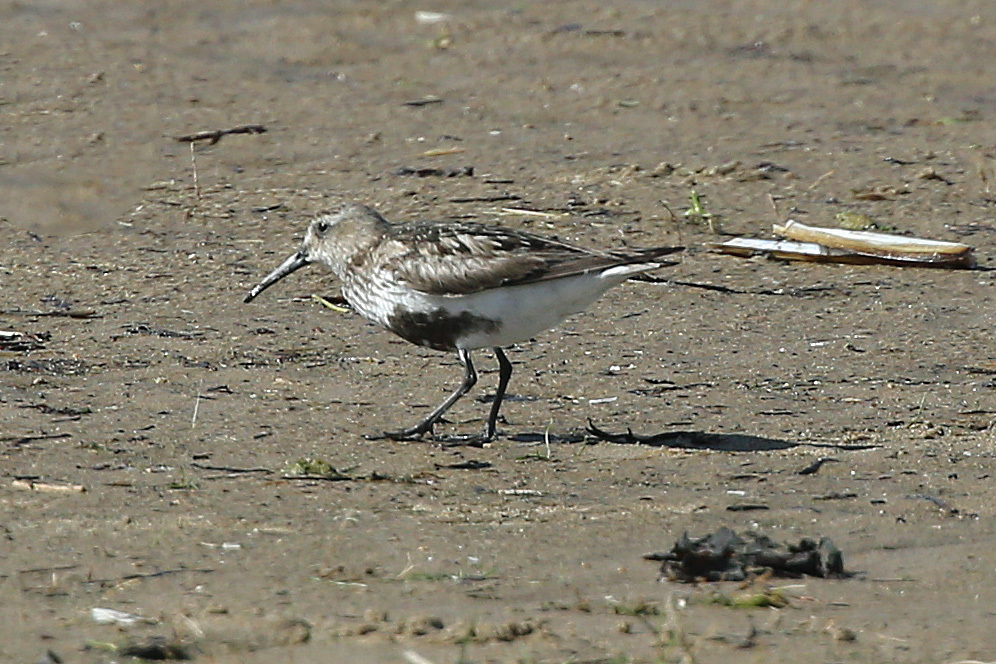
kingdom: Animalia
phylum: Chordata
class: Aves
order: Charadriiformes
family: Scolopacidae
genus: Calidris
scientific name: Calidris alpina
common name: Dunlin
